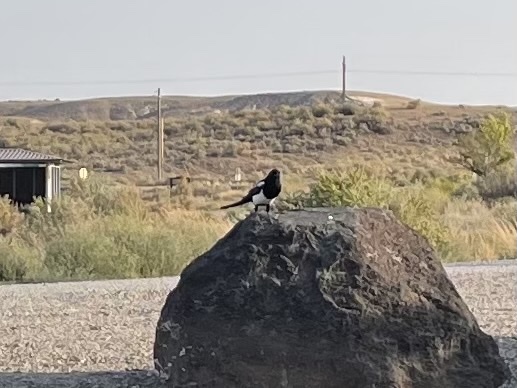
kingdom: Animalia
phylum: Chordata
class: Aves
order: Passeriformes
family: Corvidae
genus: Pica
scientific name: Pica hudsonia
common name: Black-billed magpie
